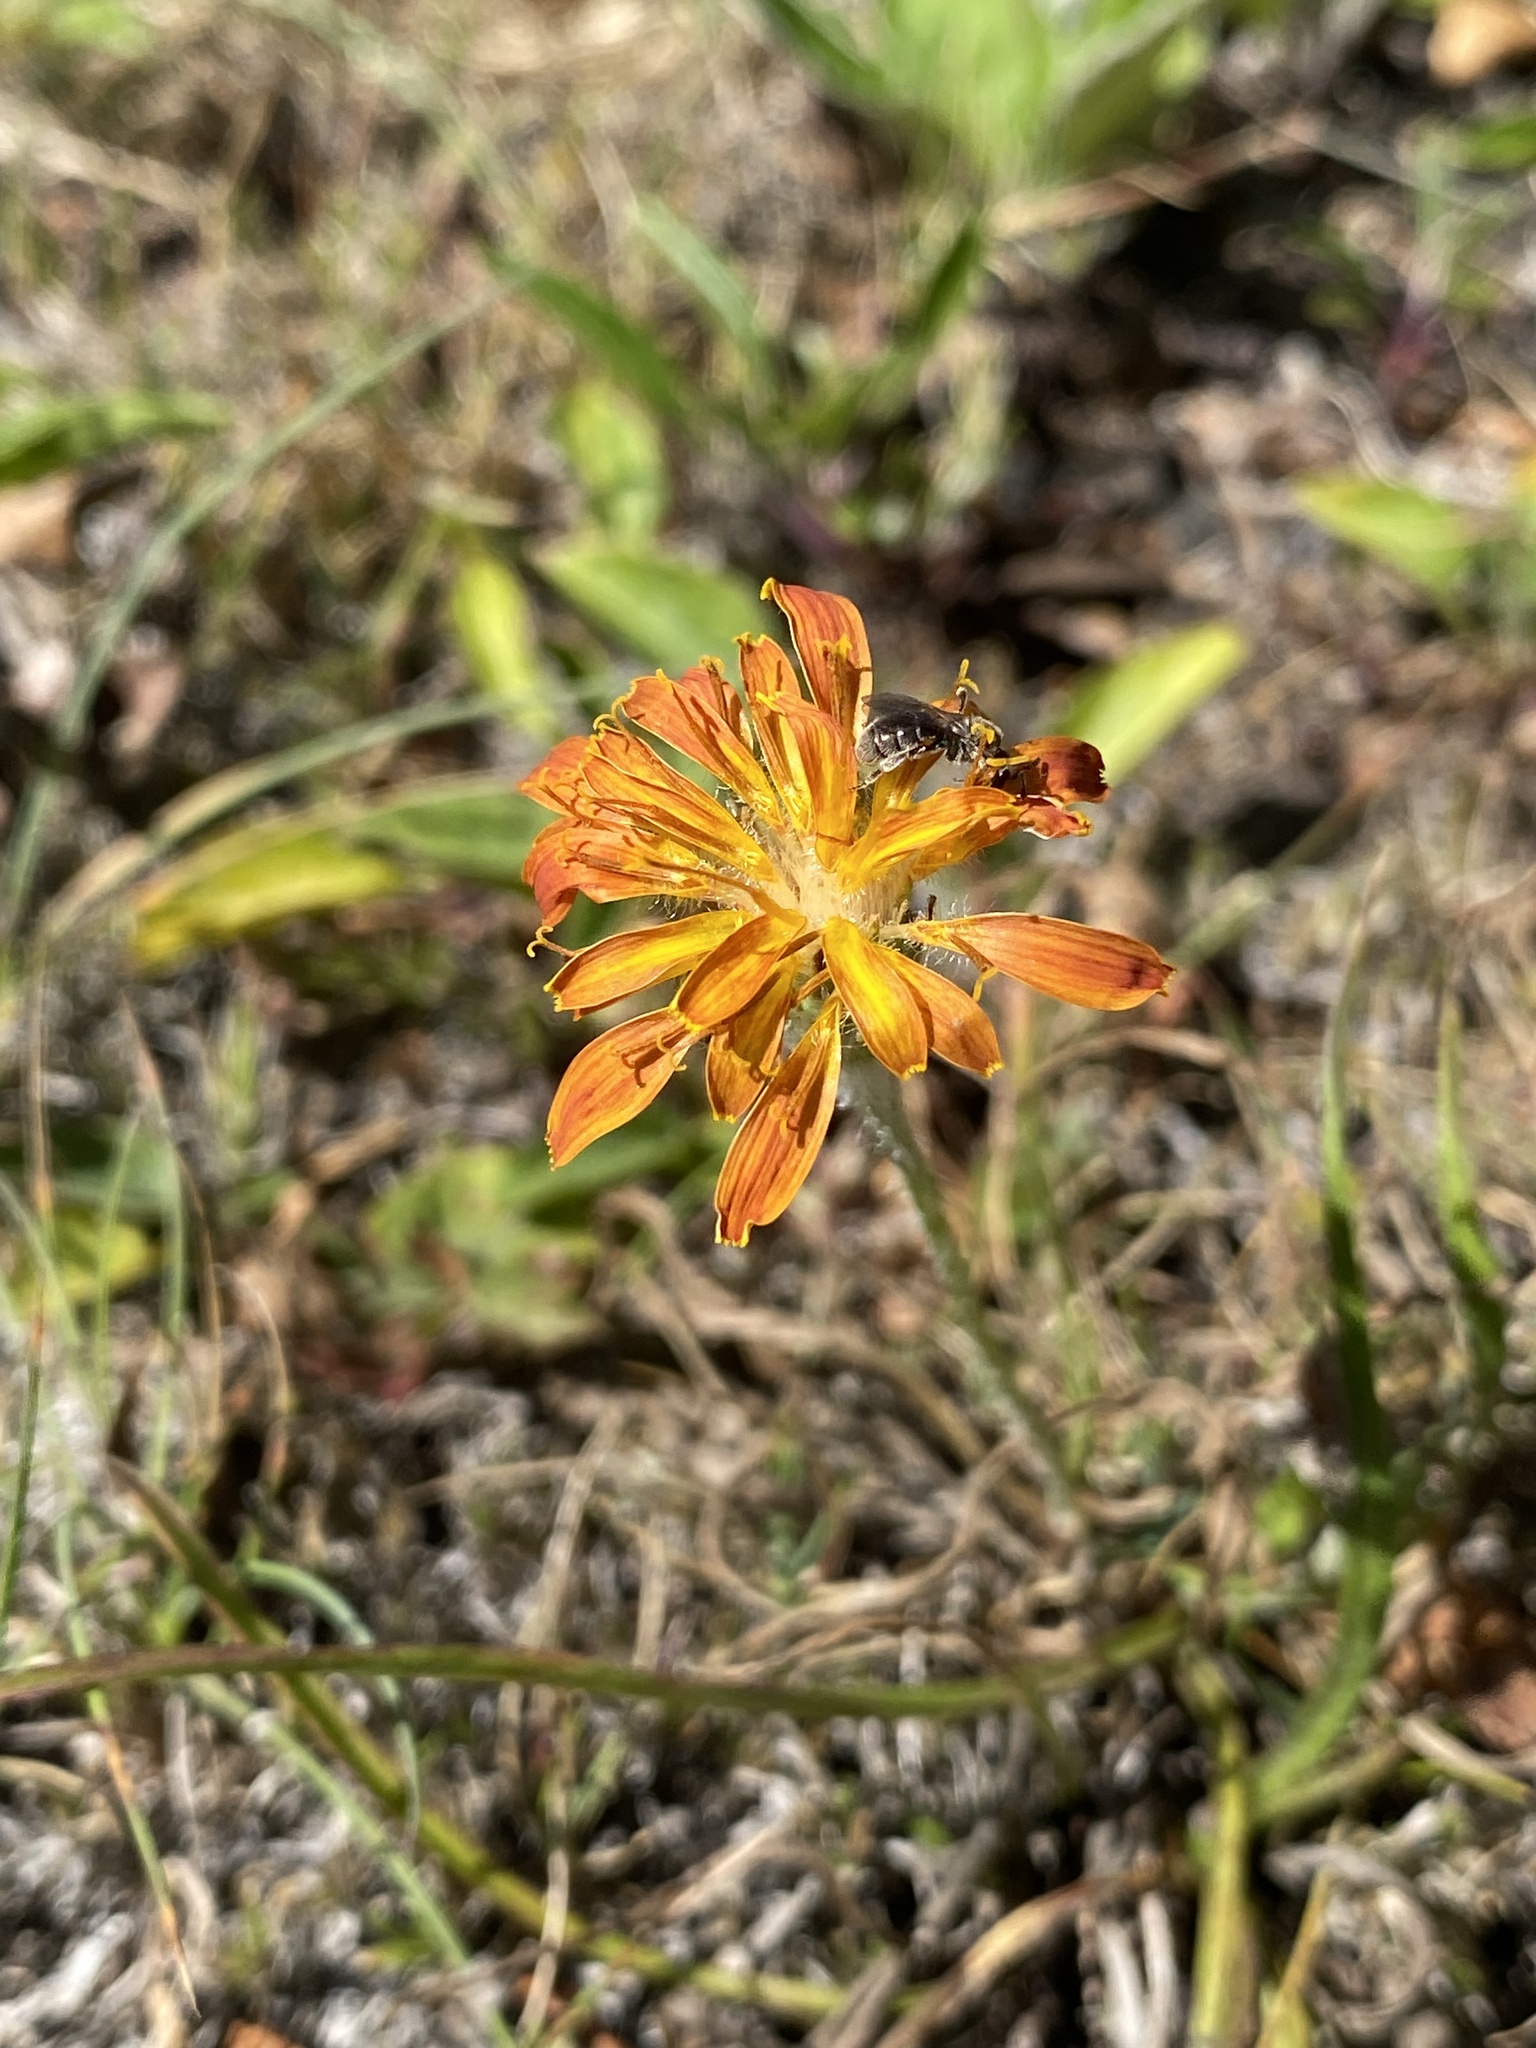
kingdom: Plantae
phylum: Tracheophyta
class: Magnoliopsida
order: Asterales
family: Asteraceae
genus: Agoseris
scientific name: Agoseris aurantiaca
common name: Mountain agoseris
